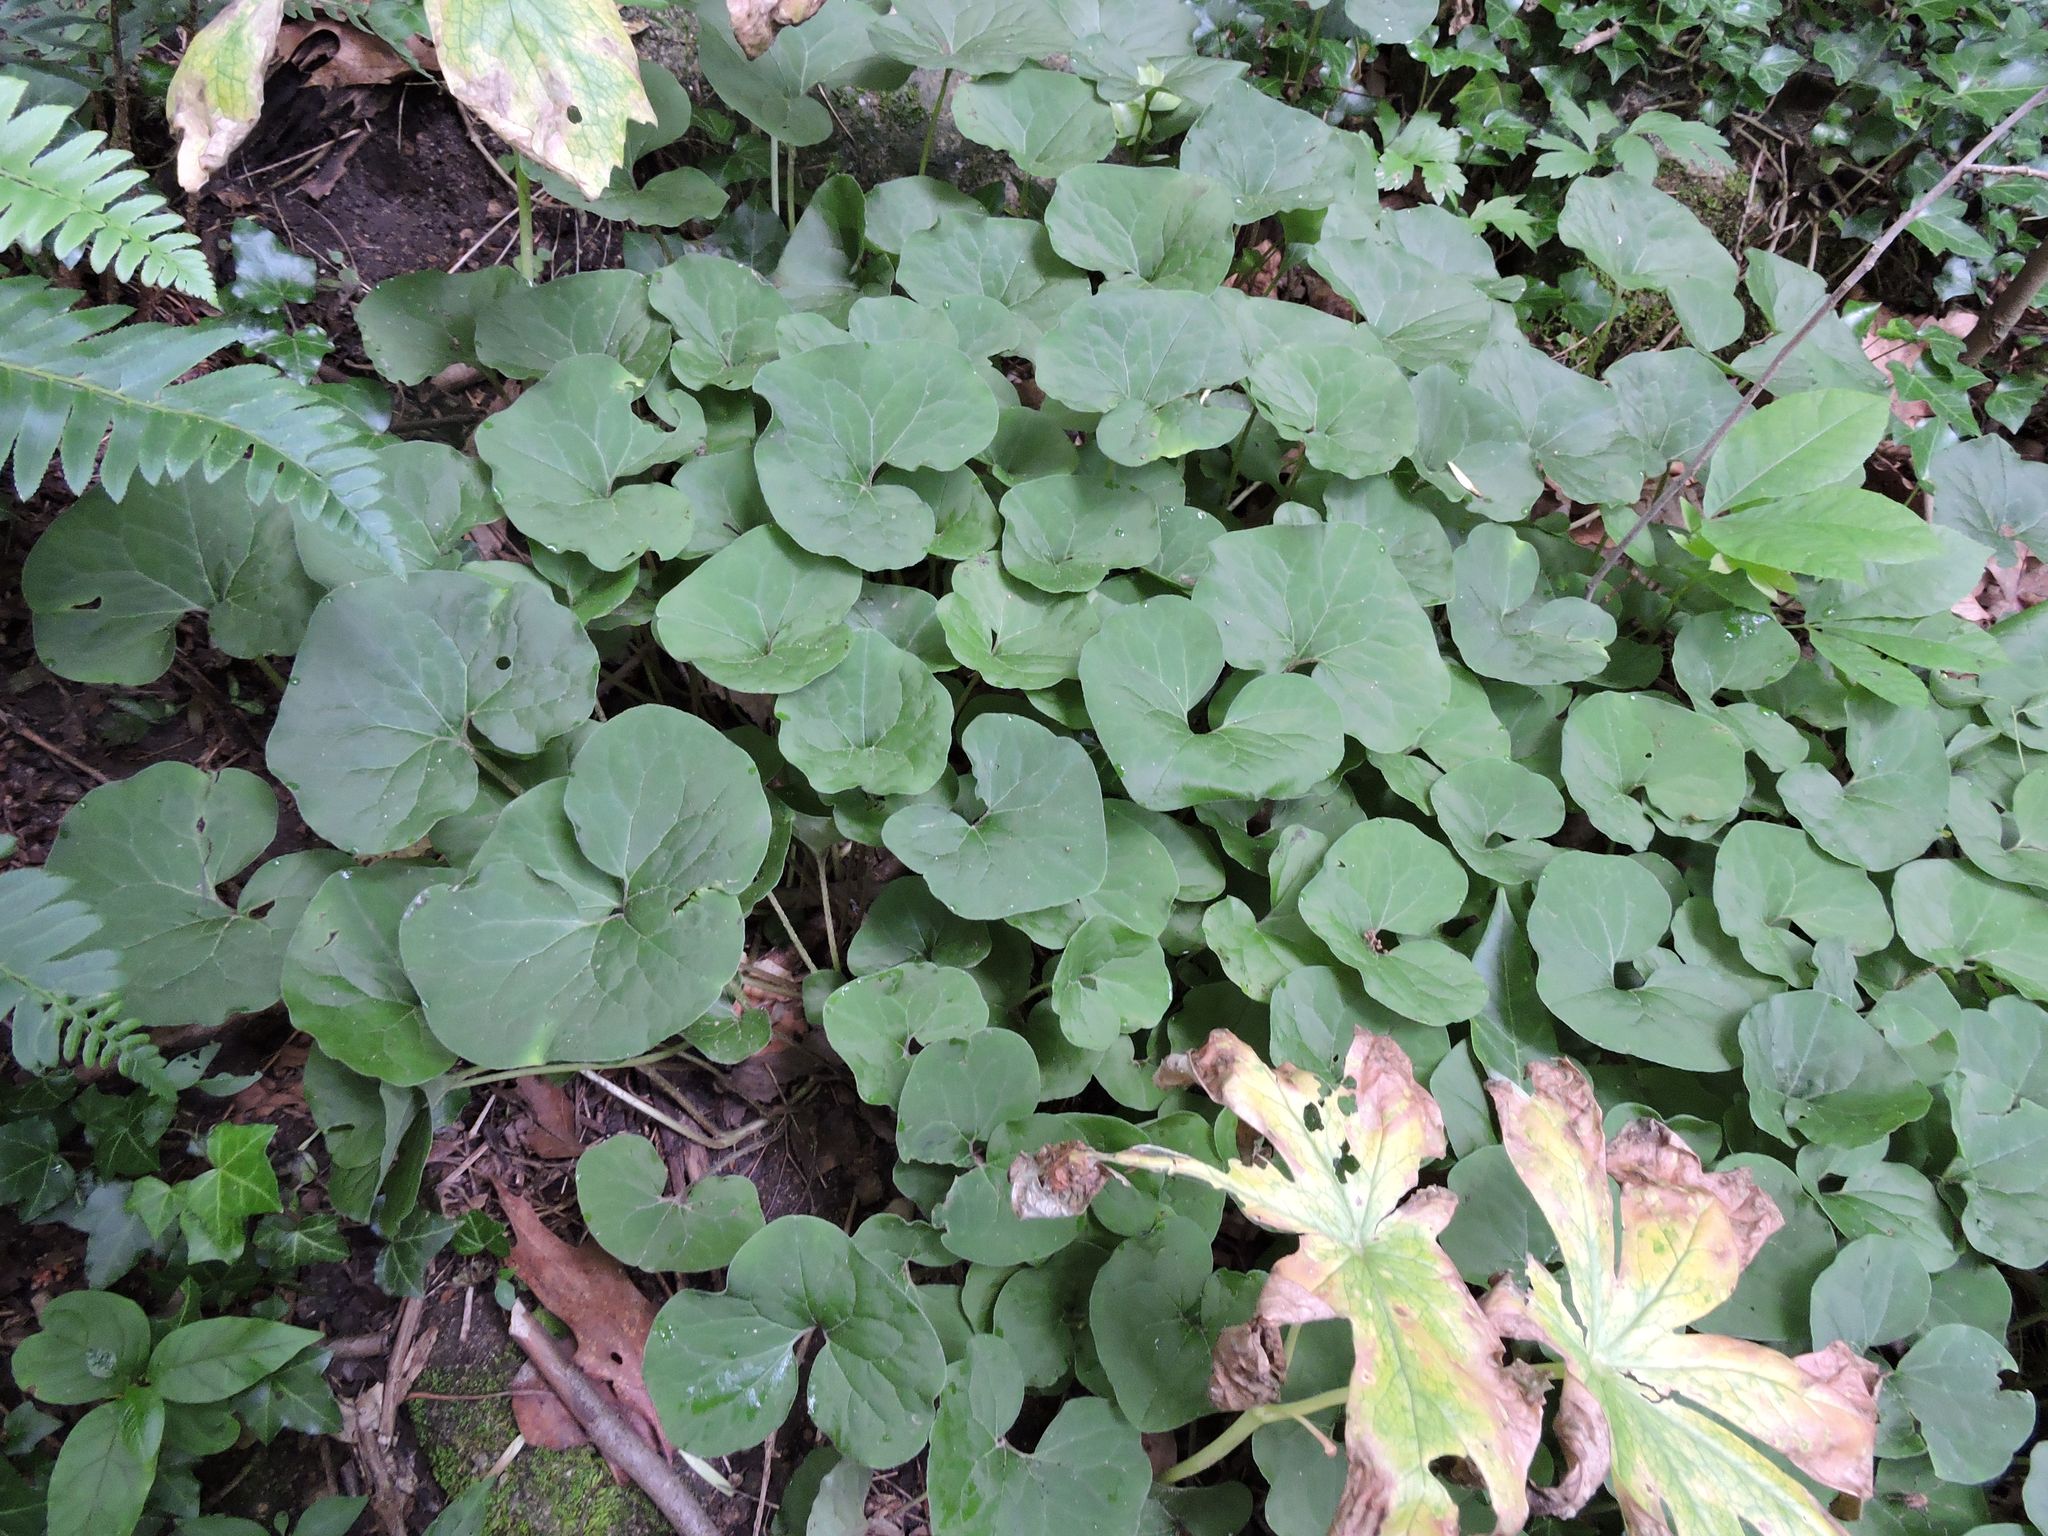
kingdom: Plantae
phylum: Tracheophyta
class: Magnoliopsida
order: Piperales
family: Aristolochiaceae
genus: Asarum
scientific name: Asarum canadense
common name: Wild ginger
